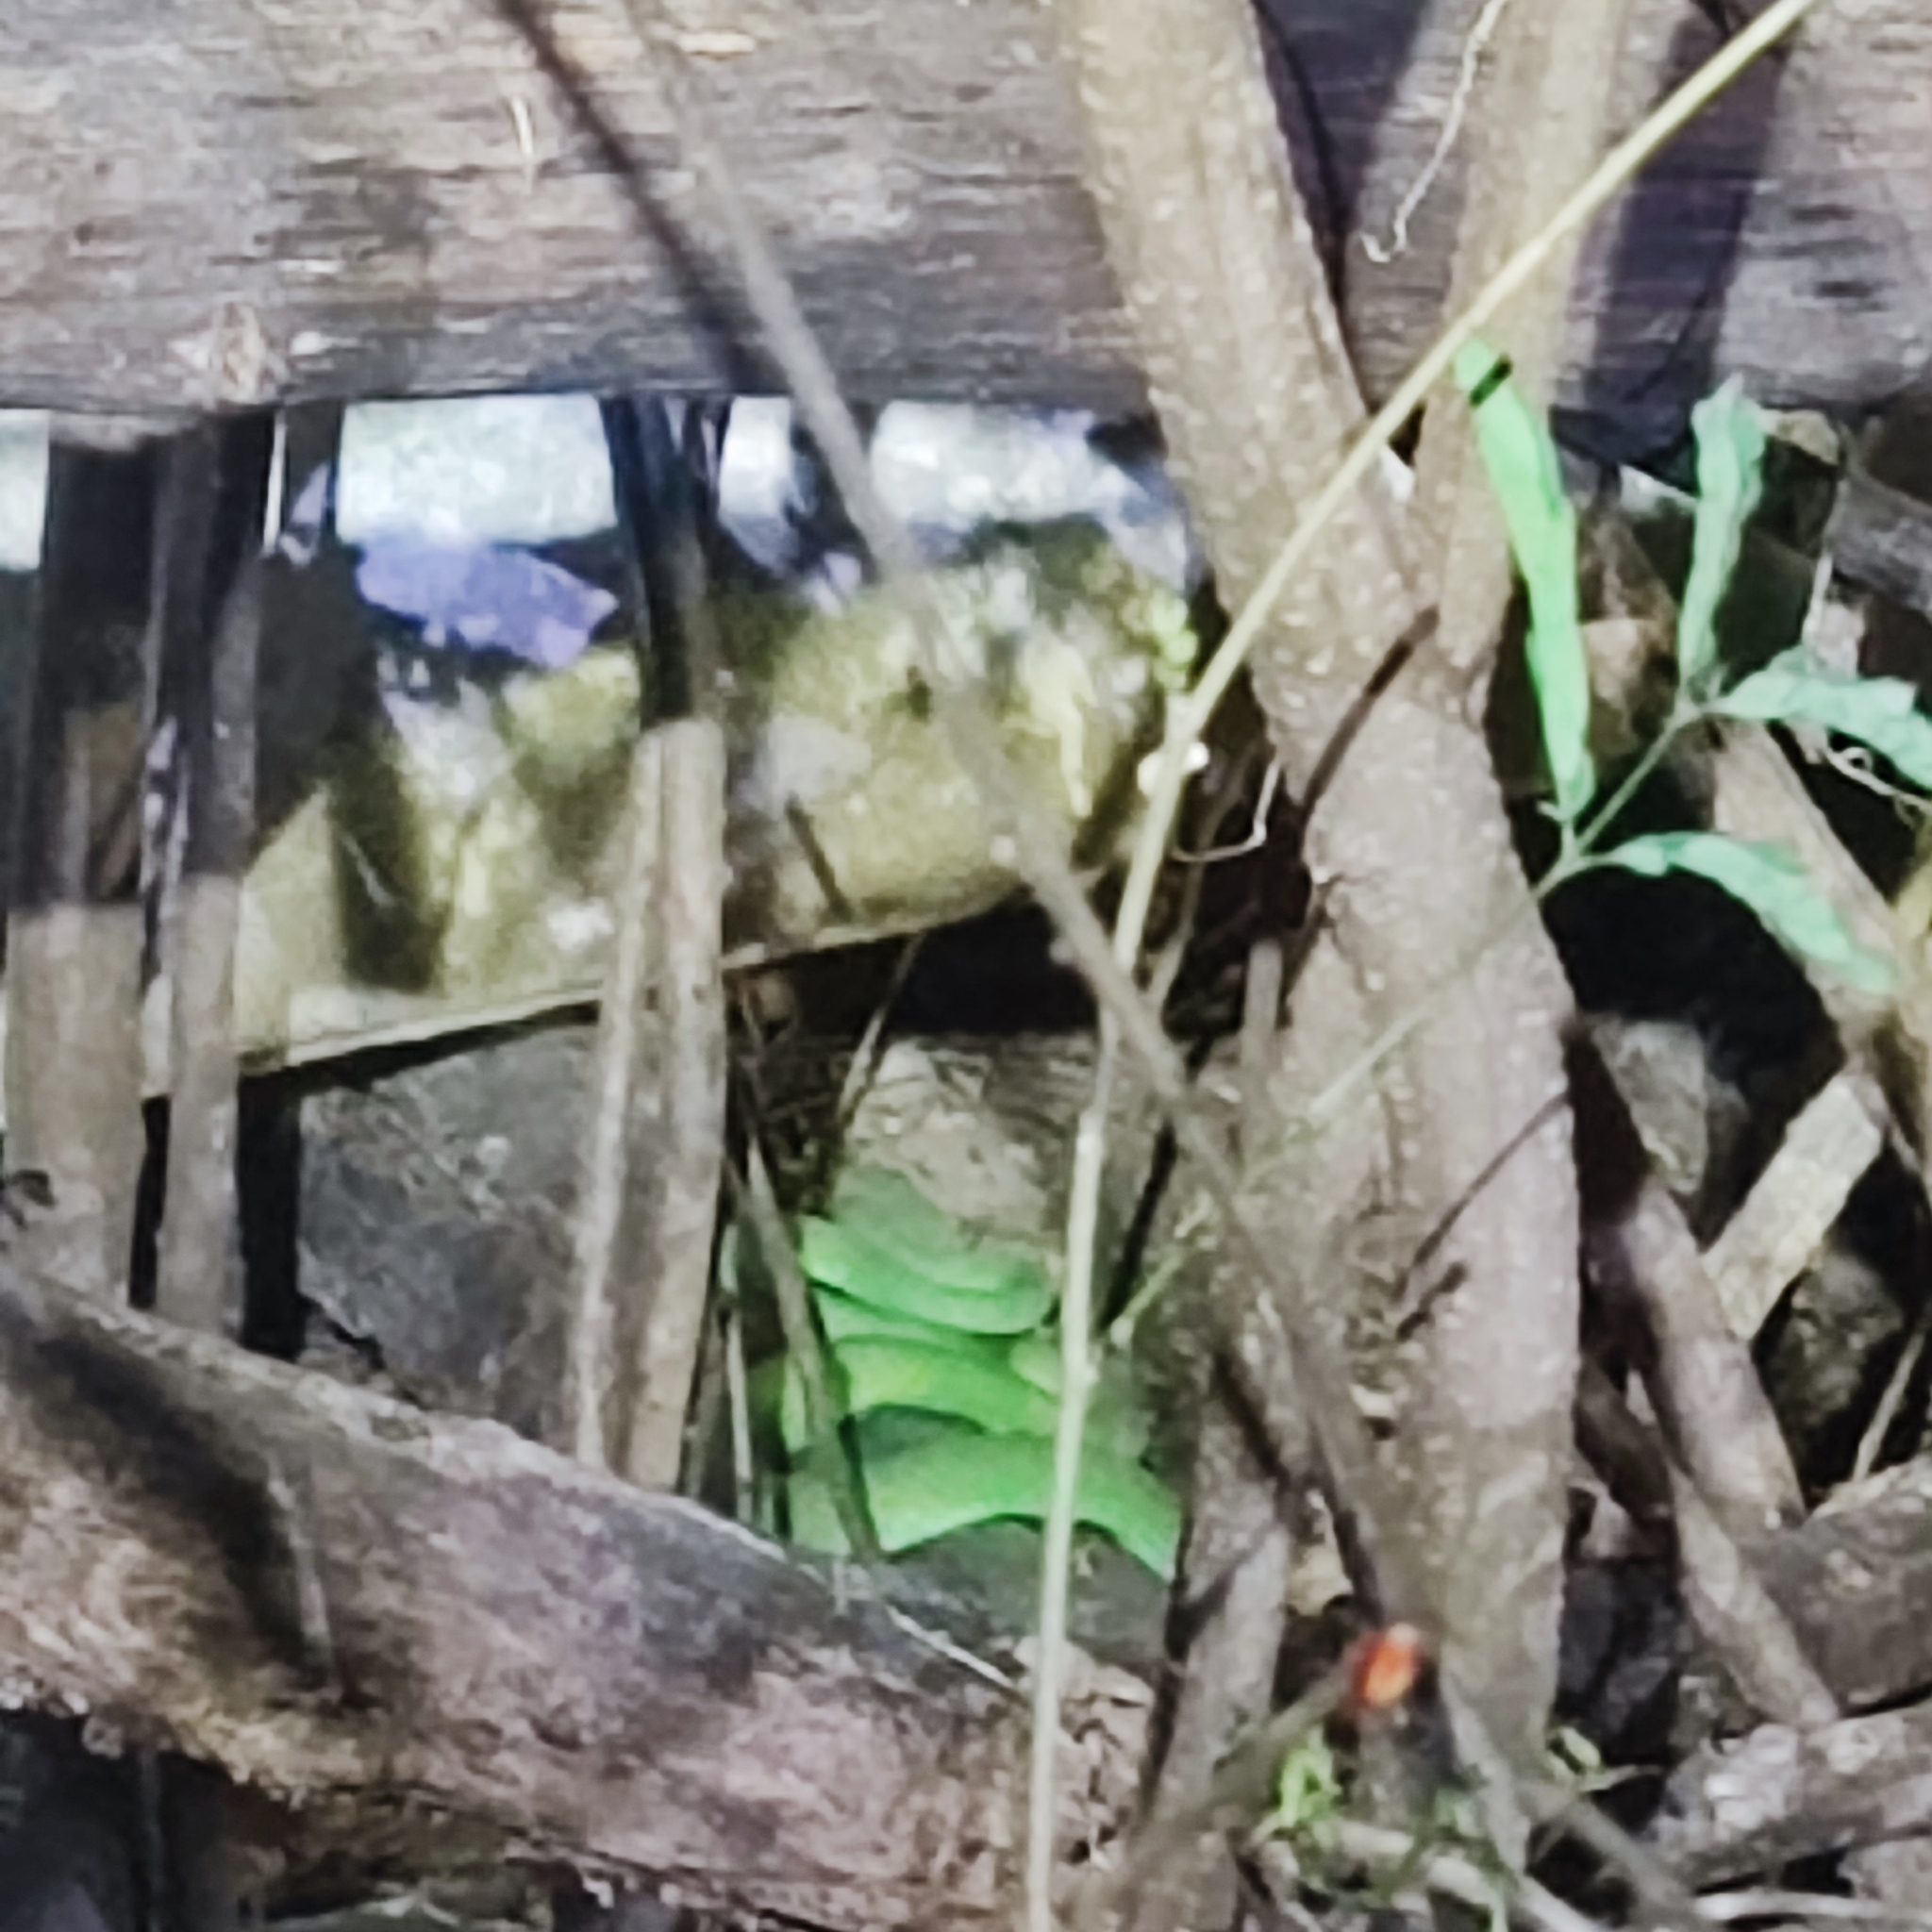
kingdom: Animalia
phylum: Chordata
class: Squamata
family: Viperidae
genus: Trimeresurus
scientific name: Trimeresurus macrops
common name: Kramer's pit viper
